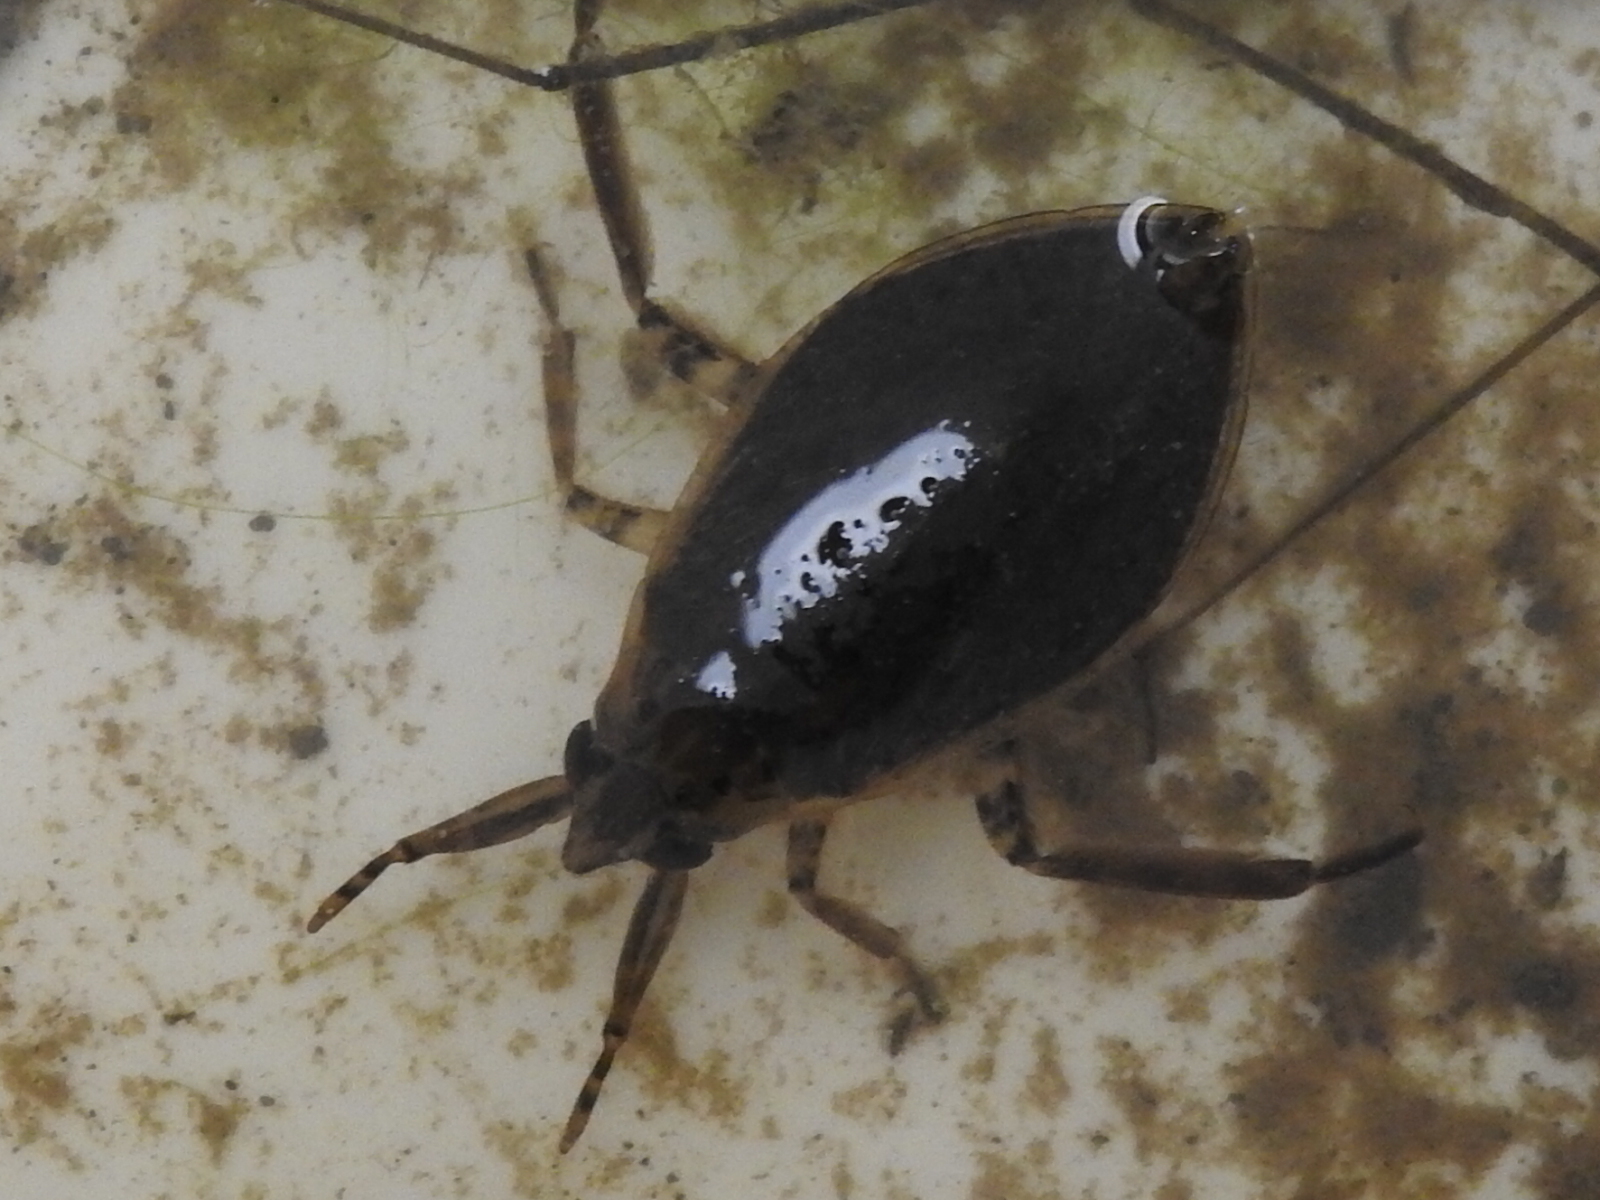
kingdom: Animalia
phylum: Arthropoda
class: Insecta
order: Hemiptera
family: Belostomatidae
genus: Belostoma
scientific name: Belostoma
